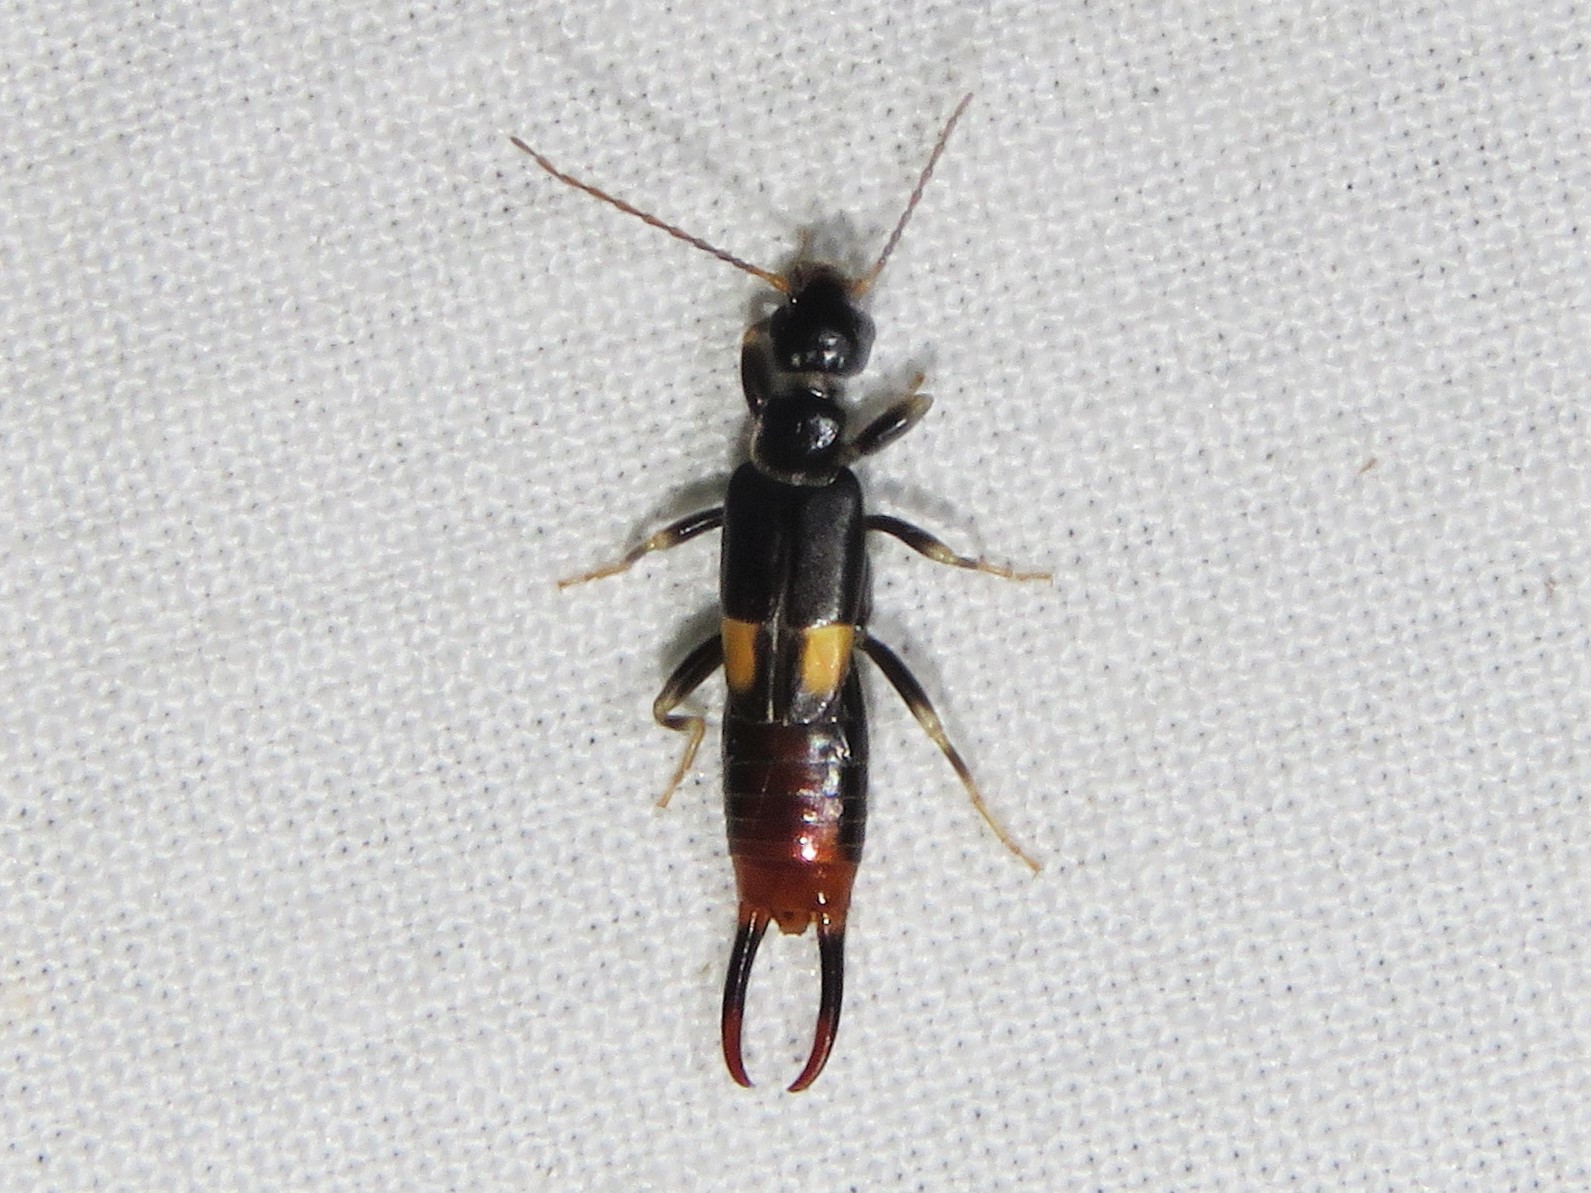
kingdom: Animalia
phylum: Arthropoda
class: Insecta
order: Dermaptera
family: Spongiphoridae
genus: Marava
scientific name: Marava arachidis
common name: Little earwig
